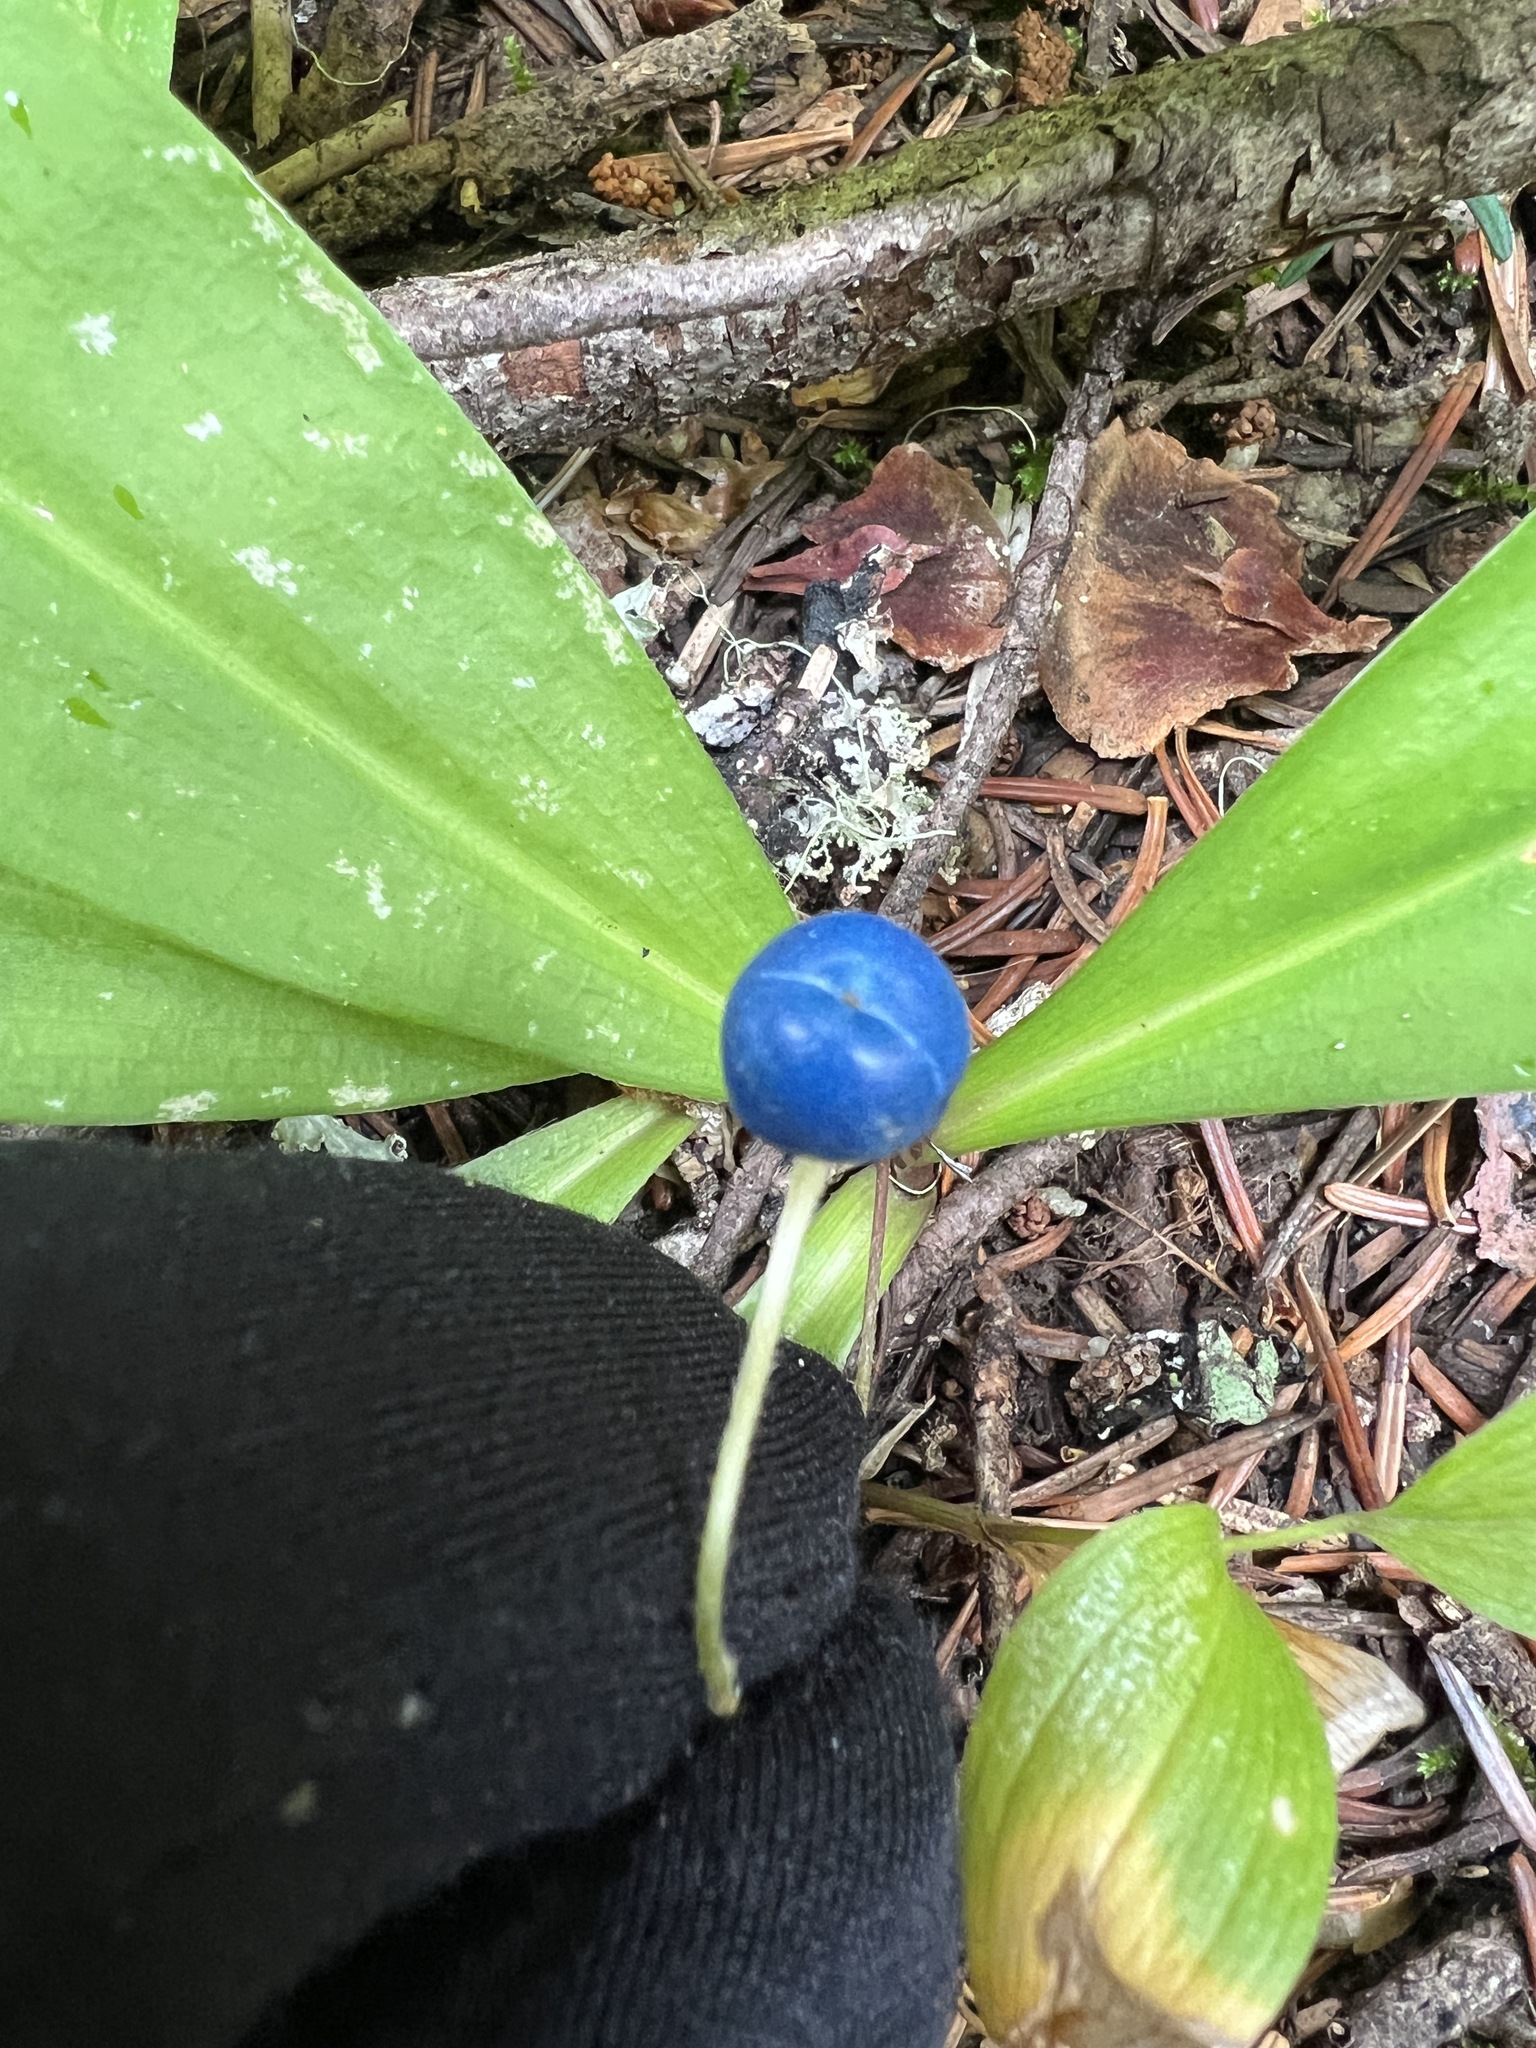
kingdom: Plantae
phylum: Tracheophyta
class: Liliopsida
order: Liliales
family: Liliaceae
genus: Clintonia
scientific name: Clintonia uniflora
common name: Queen's cup
